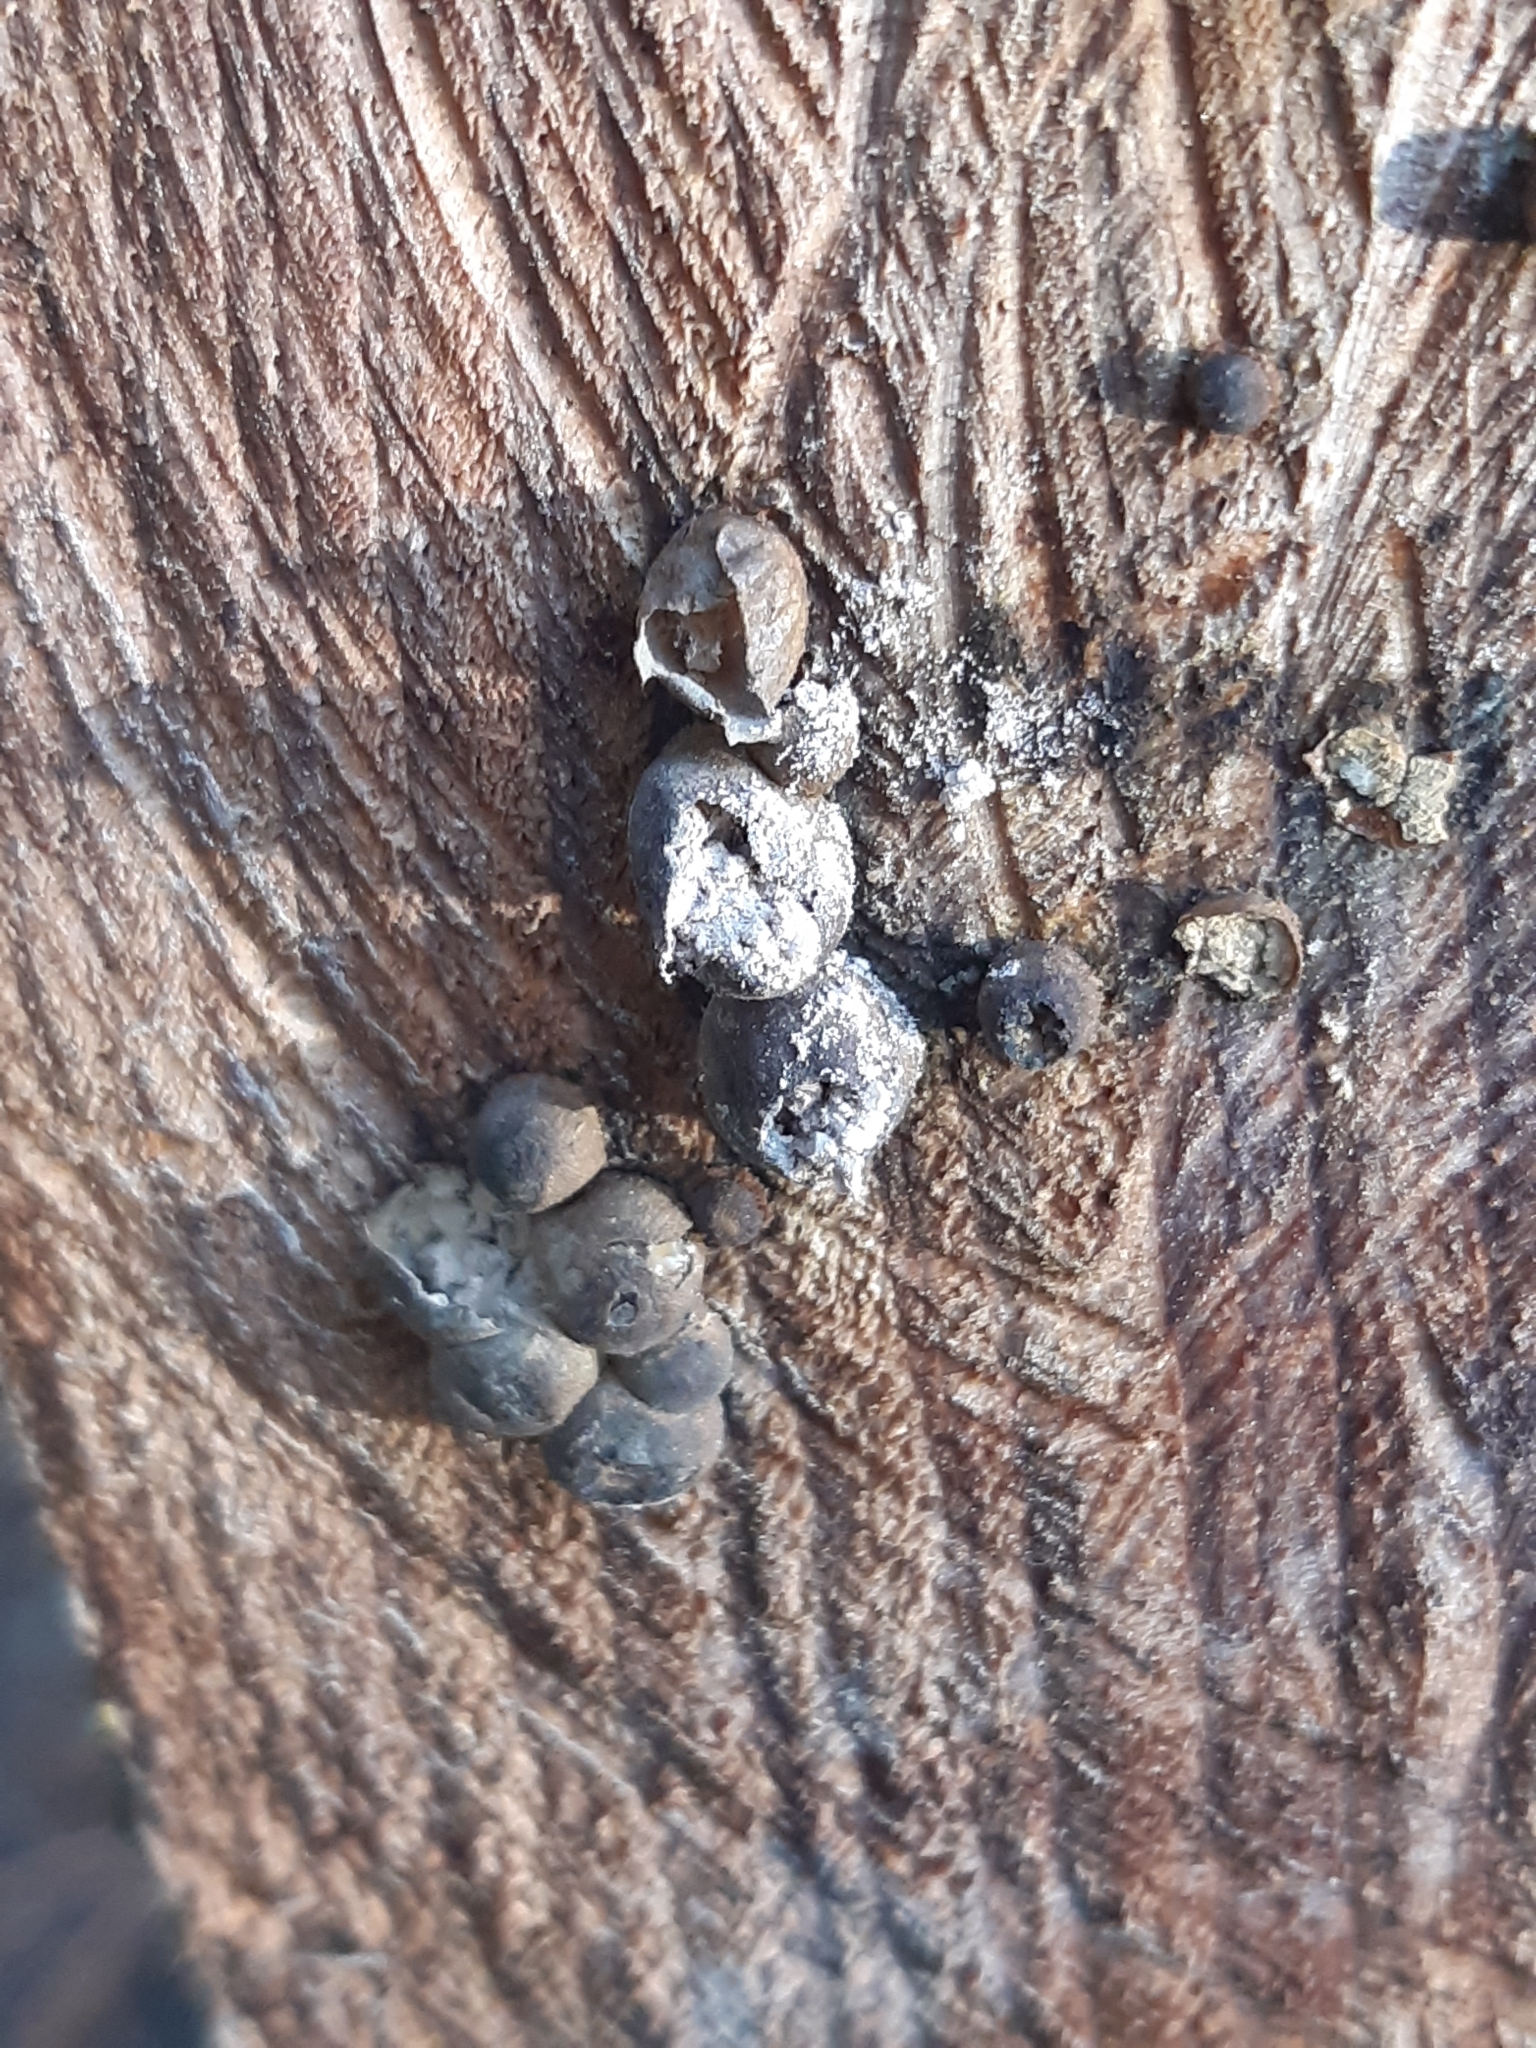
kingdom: Protozoa
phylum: Mycetozoa
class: Myxomycetes
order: Cribrariales
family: Tubiferaceae
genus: Lycogala
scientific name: Lycogala epidendrum
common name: Wolf's milk
